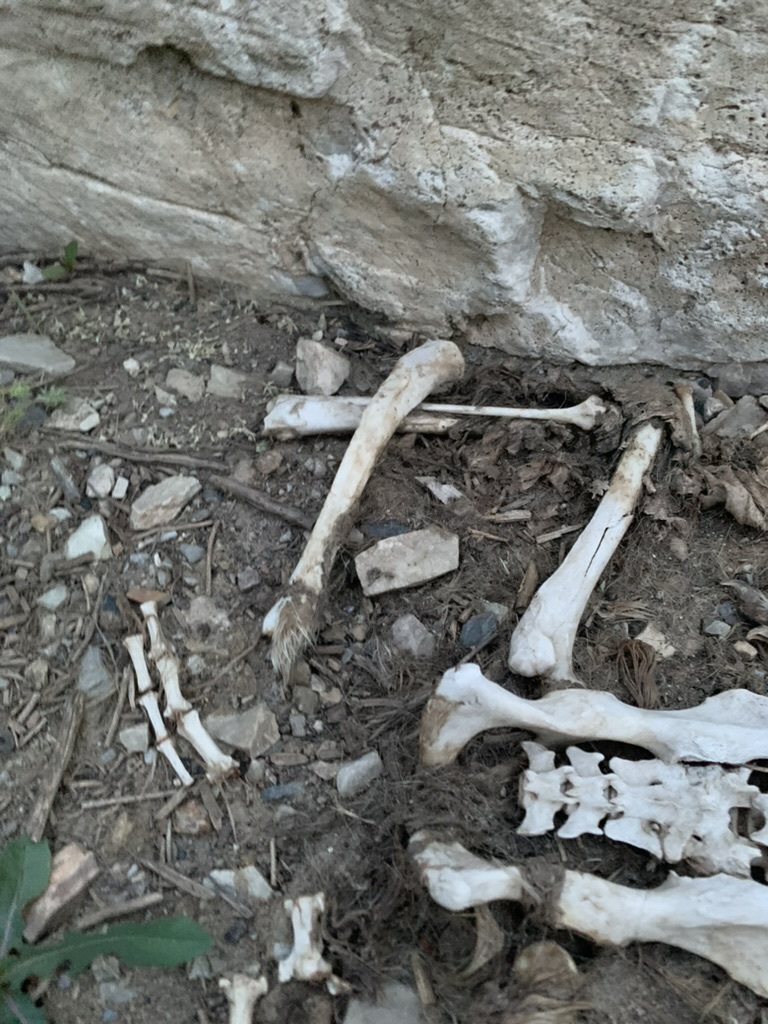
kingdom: Animalia
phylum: Chordata
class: Mammalia
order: Carnivora
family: Procyonidae
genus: Procyon
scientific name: Procyon lotor
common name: Raccoon
